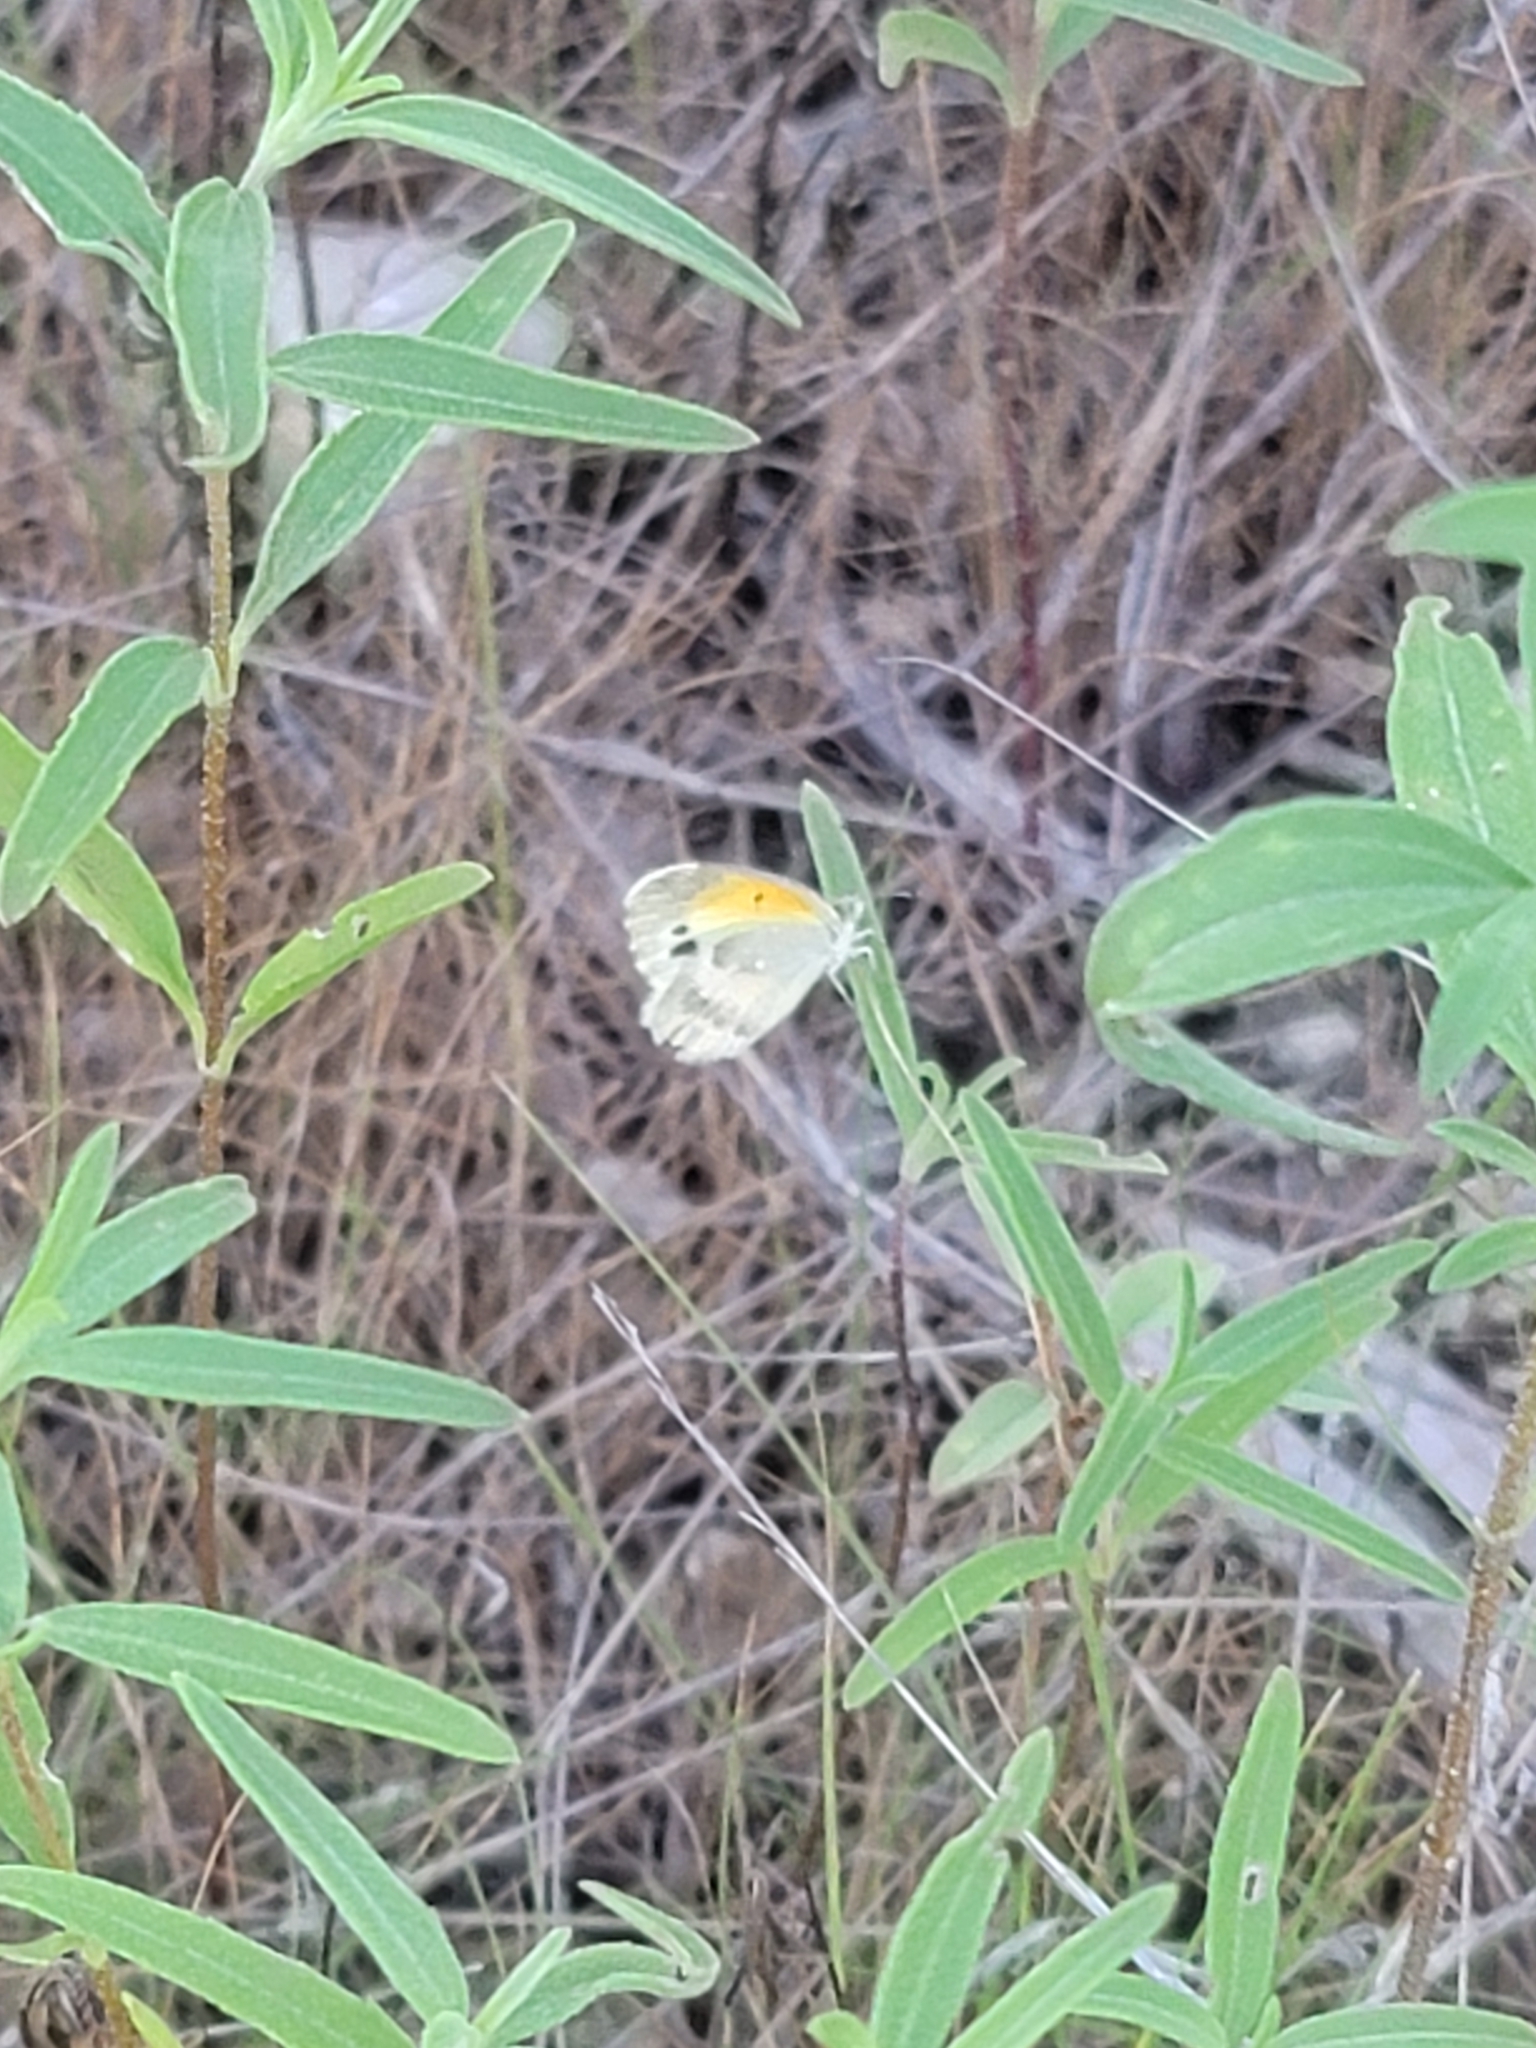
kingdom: Animalia
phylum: Arthropoda
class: Insecta
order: Lepidoptera
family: Pieridae
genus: Nathalis
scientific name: Nathalis iole
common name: Dainty sulphur
